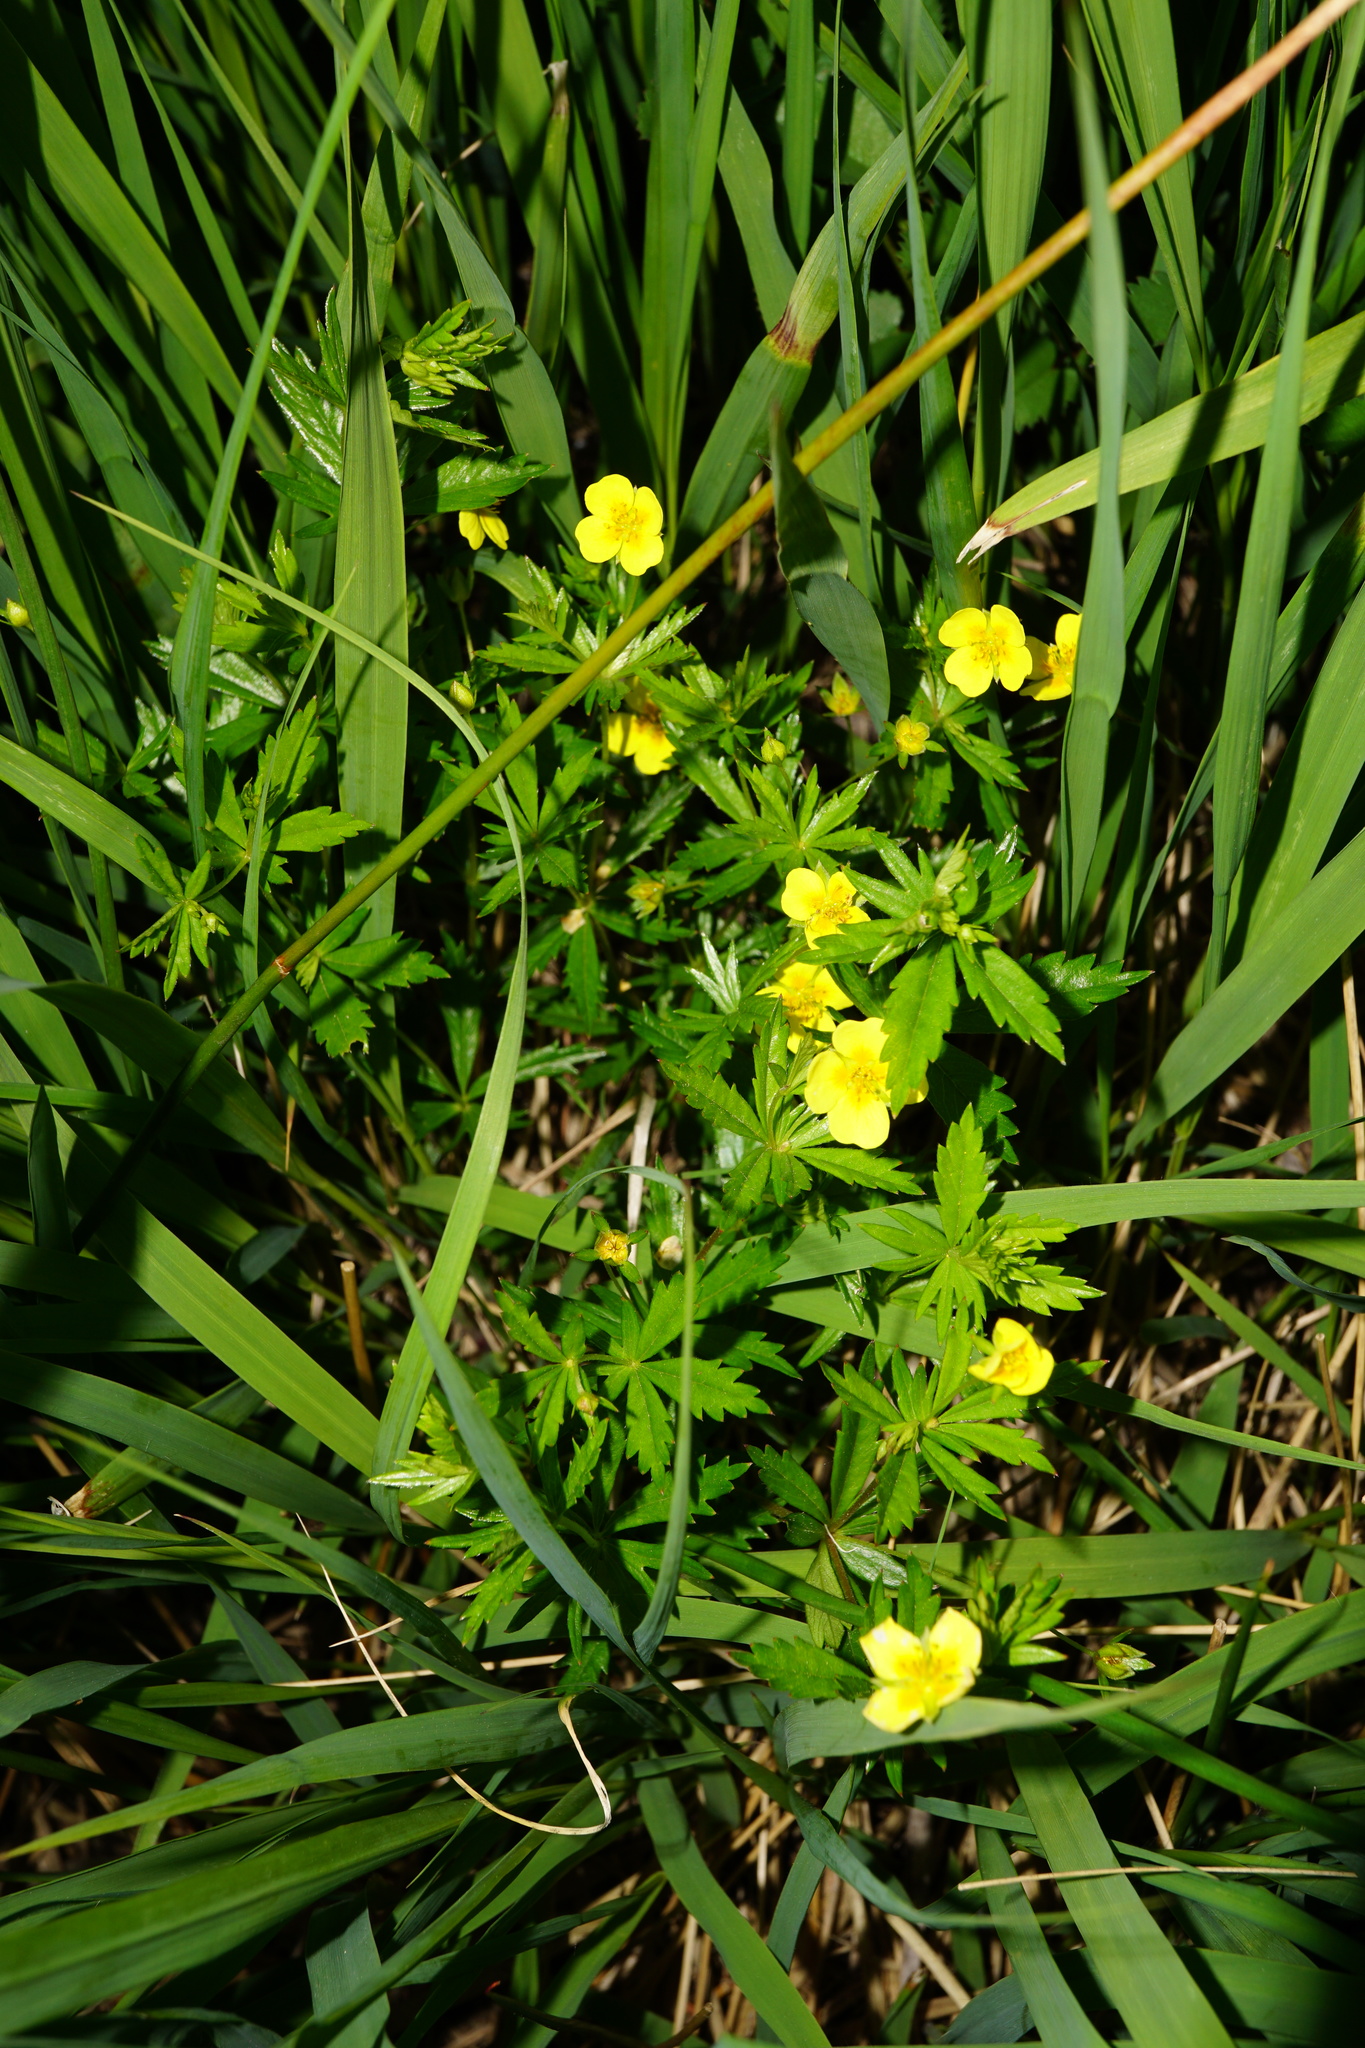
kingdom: Plantae
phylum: Tracheophyta
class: Magnoliopsida
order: Rosales
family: Rosaceae
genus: Potentilla
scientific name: Potentilla erecta
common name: Tormentil
